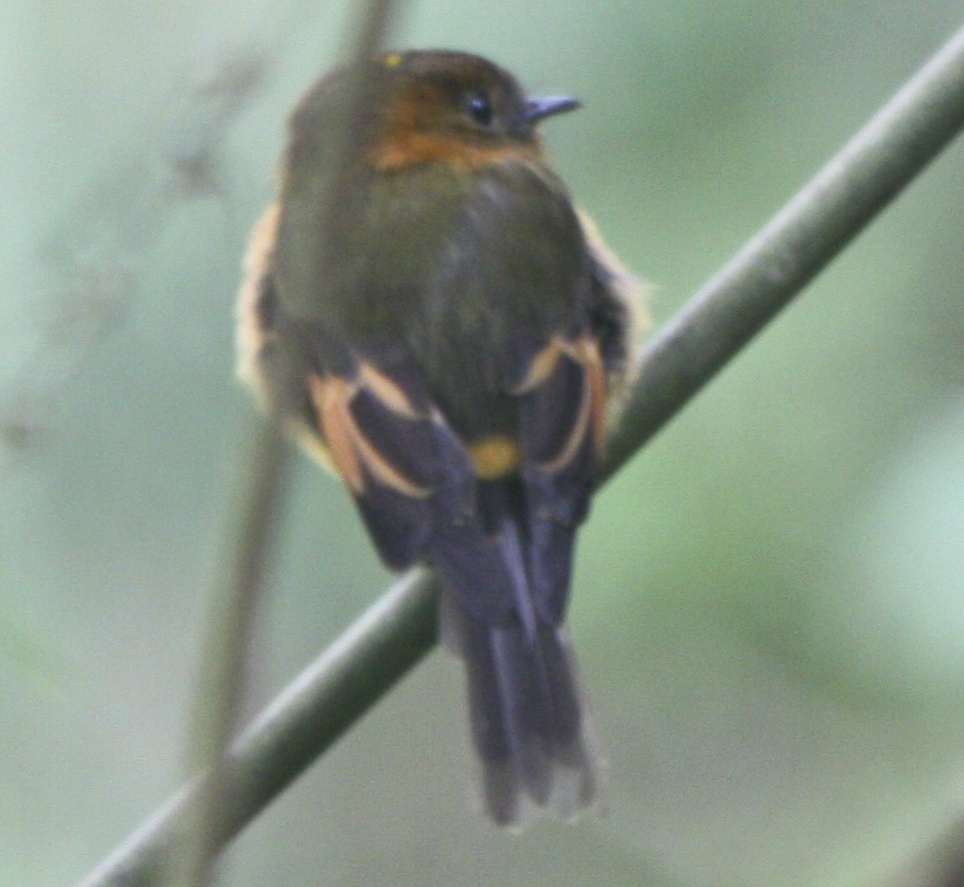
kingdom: Animalia
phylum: Chordata
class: Aves
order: Passeriformes
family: Tyrannidae
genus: Pyrrhomyias
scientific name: Pyrrhomyias cinnamomeus
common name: Cinnamon flycatcher
